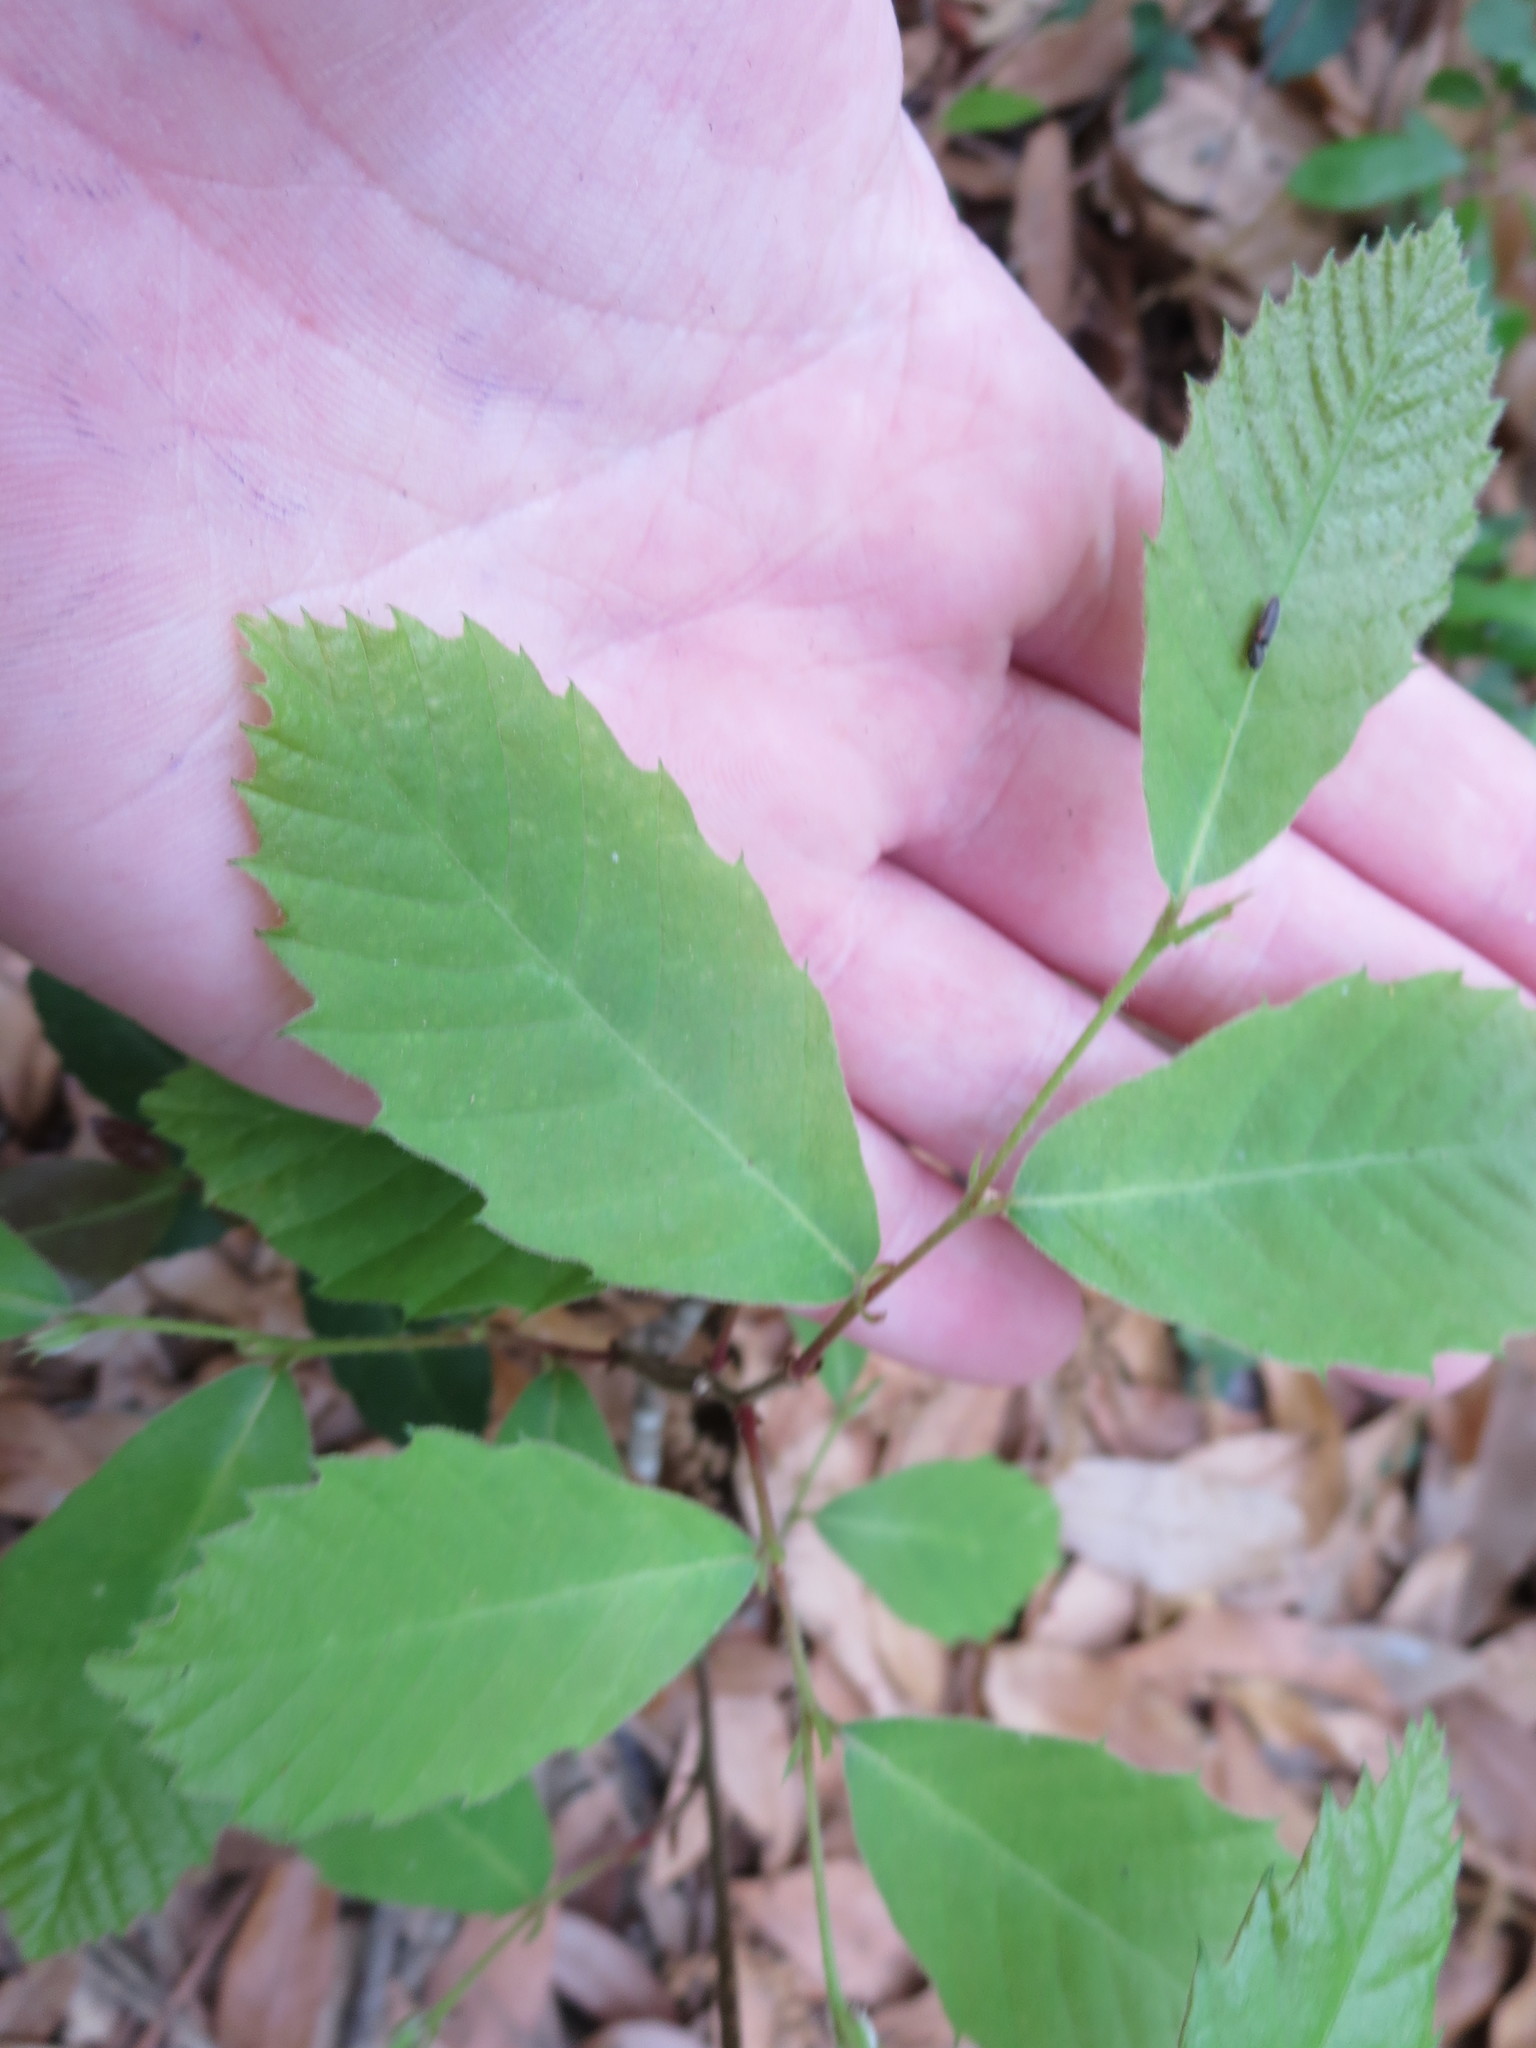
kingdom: Plantae
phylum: Tracheophyta
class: Magnoliopsida
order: Fagales
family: Fagaceae
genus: Castanea
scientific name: Castanea pumila
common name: Chinkapin
